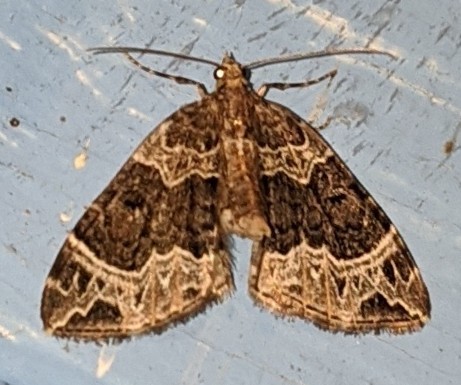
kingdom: Animalia
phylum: Arthropoda
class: Insecta
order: Lepidoptera
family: Geometridae
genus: Ecliptopera
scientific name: Ecliptopera silaceata
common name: Small phoenix
